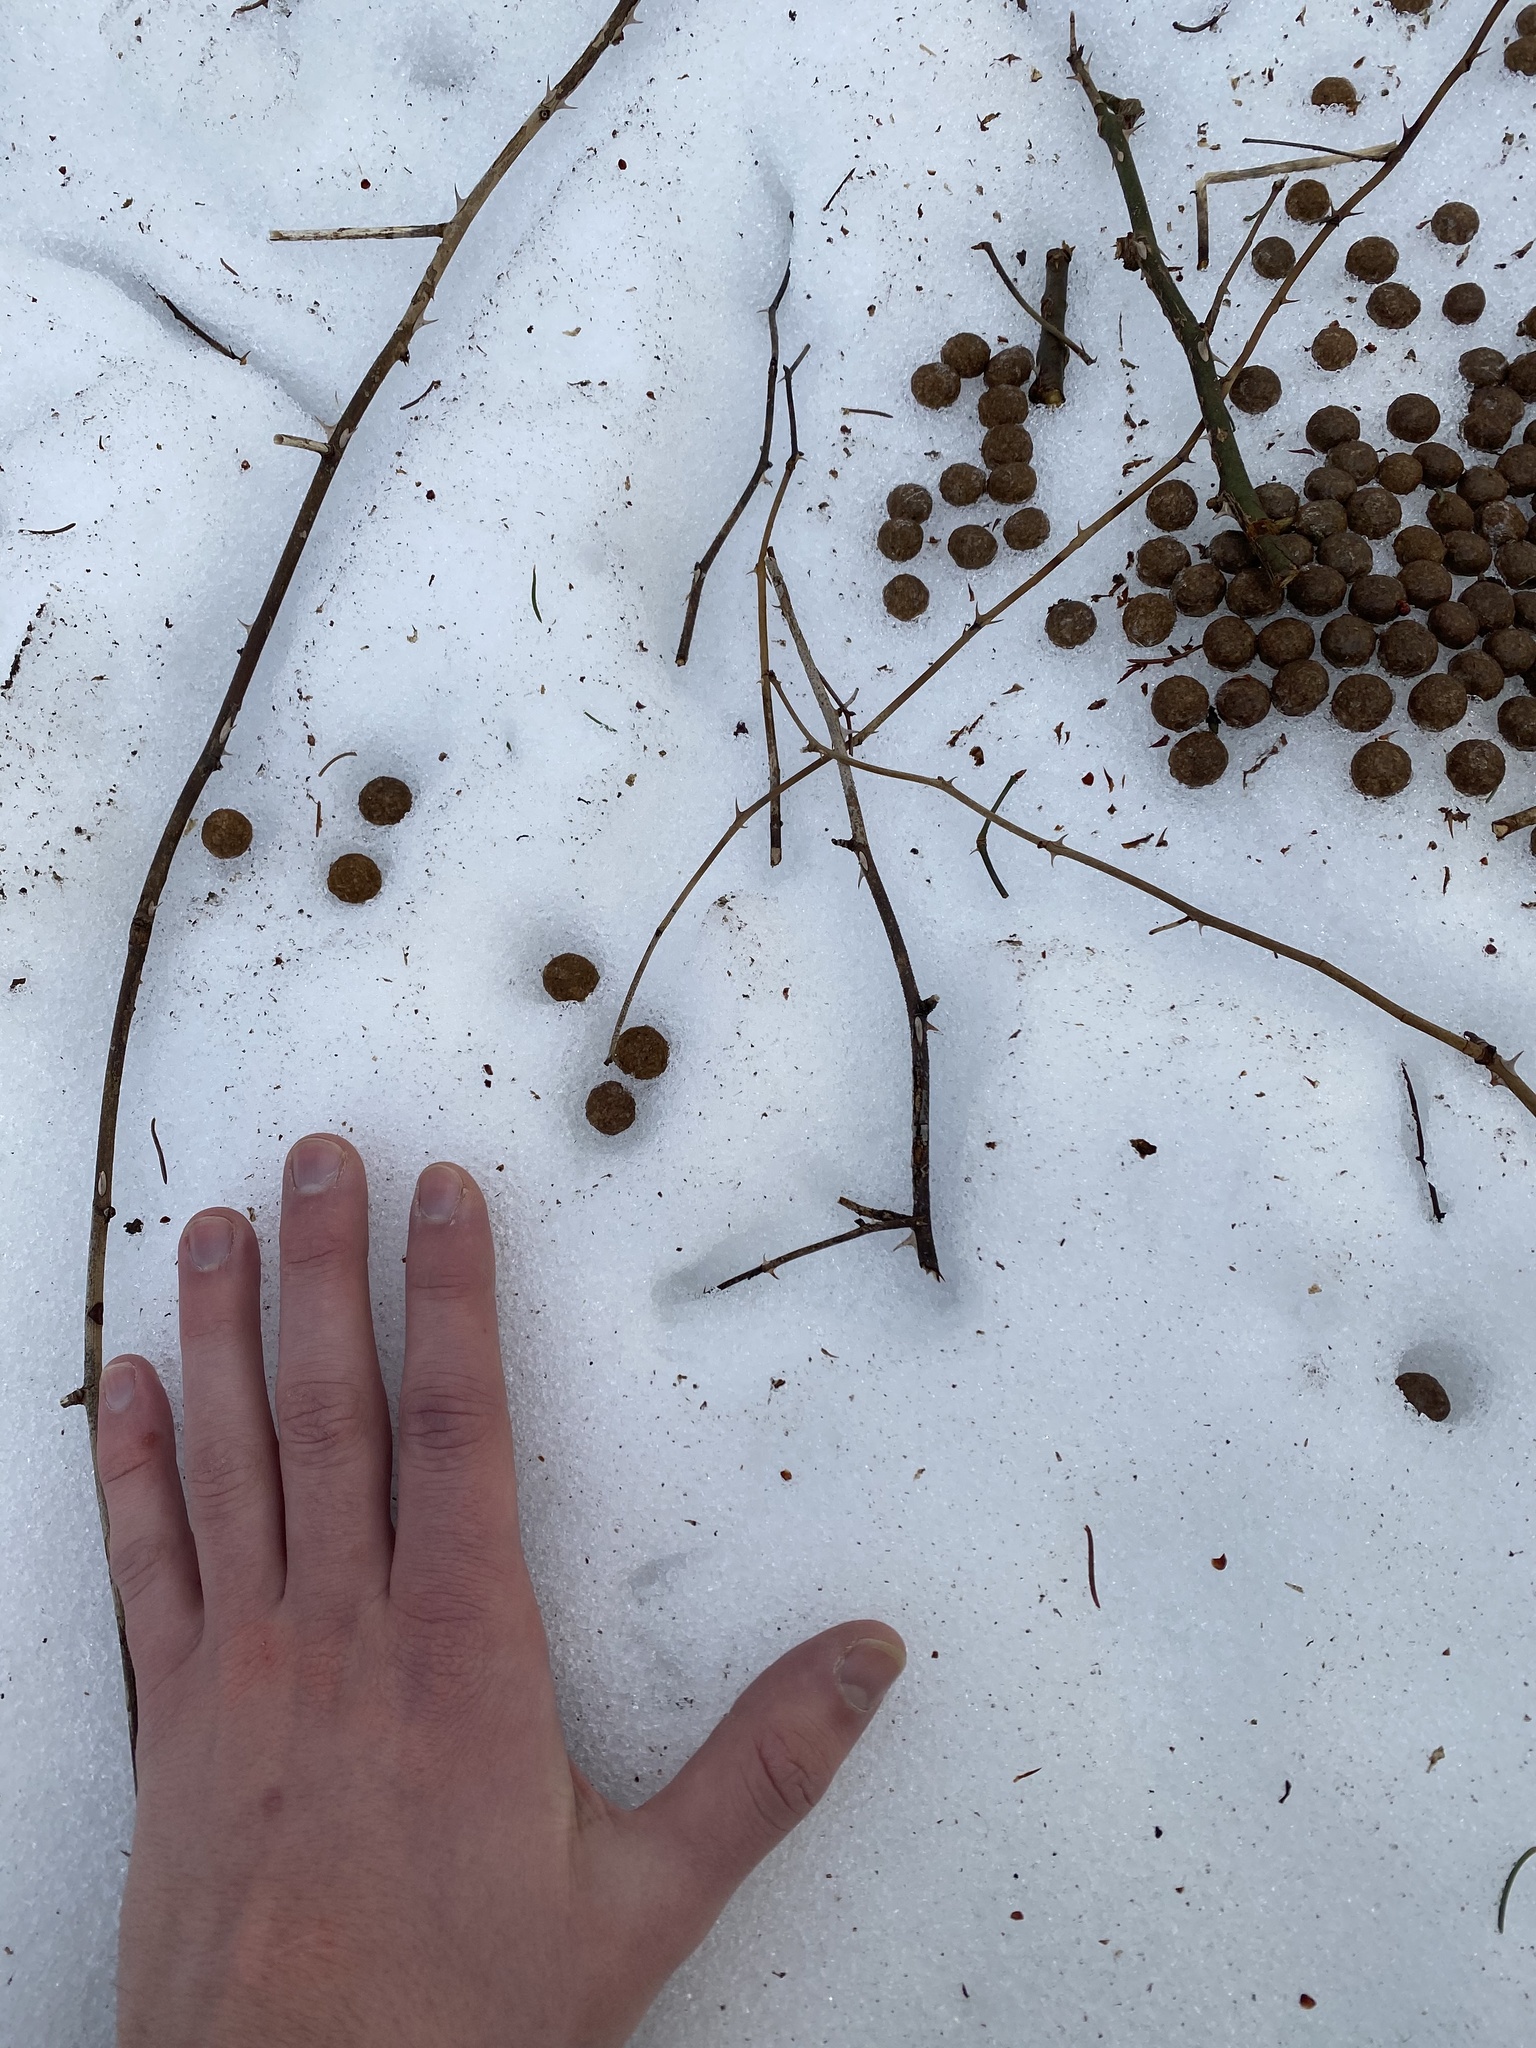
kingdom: Animalia
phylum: Chordata
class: Mammalia
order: Artiodactyla
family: Cervidae
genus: Odocoileus
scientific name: Odocoileus virginianus
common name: White-tailed deer
